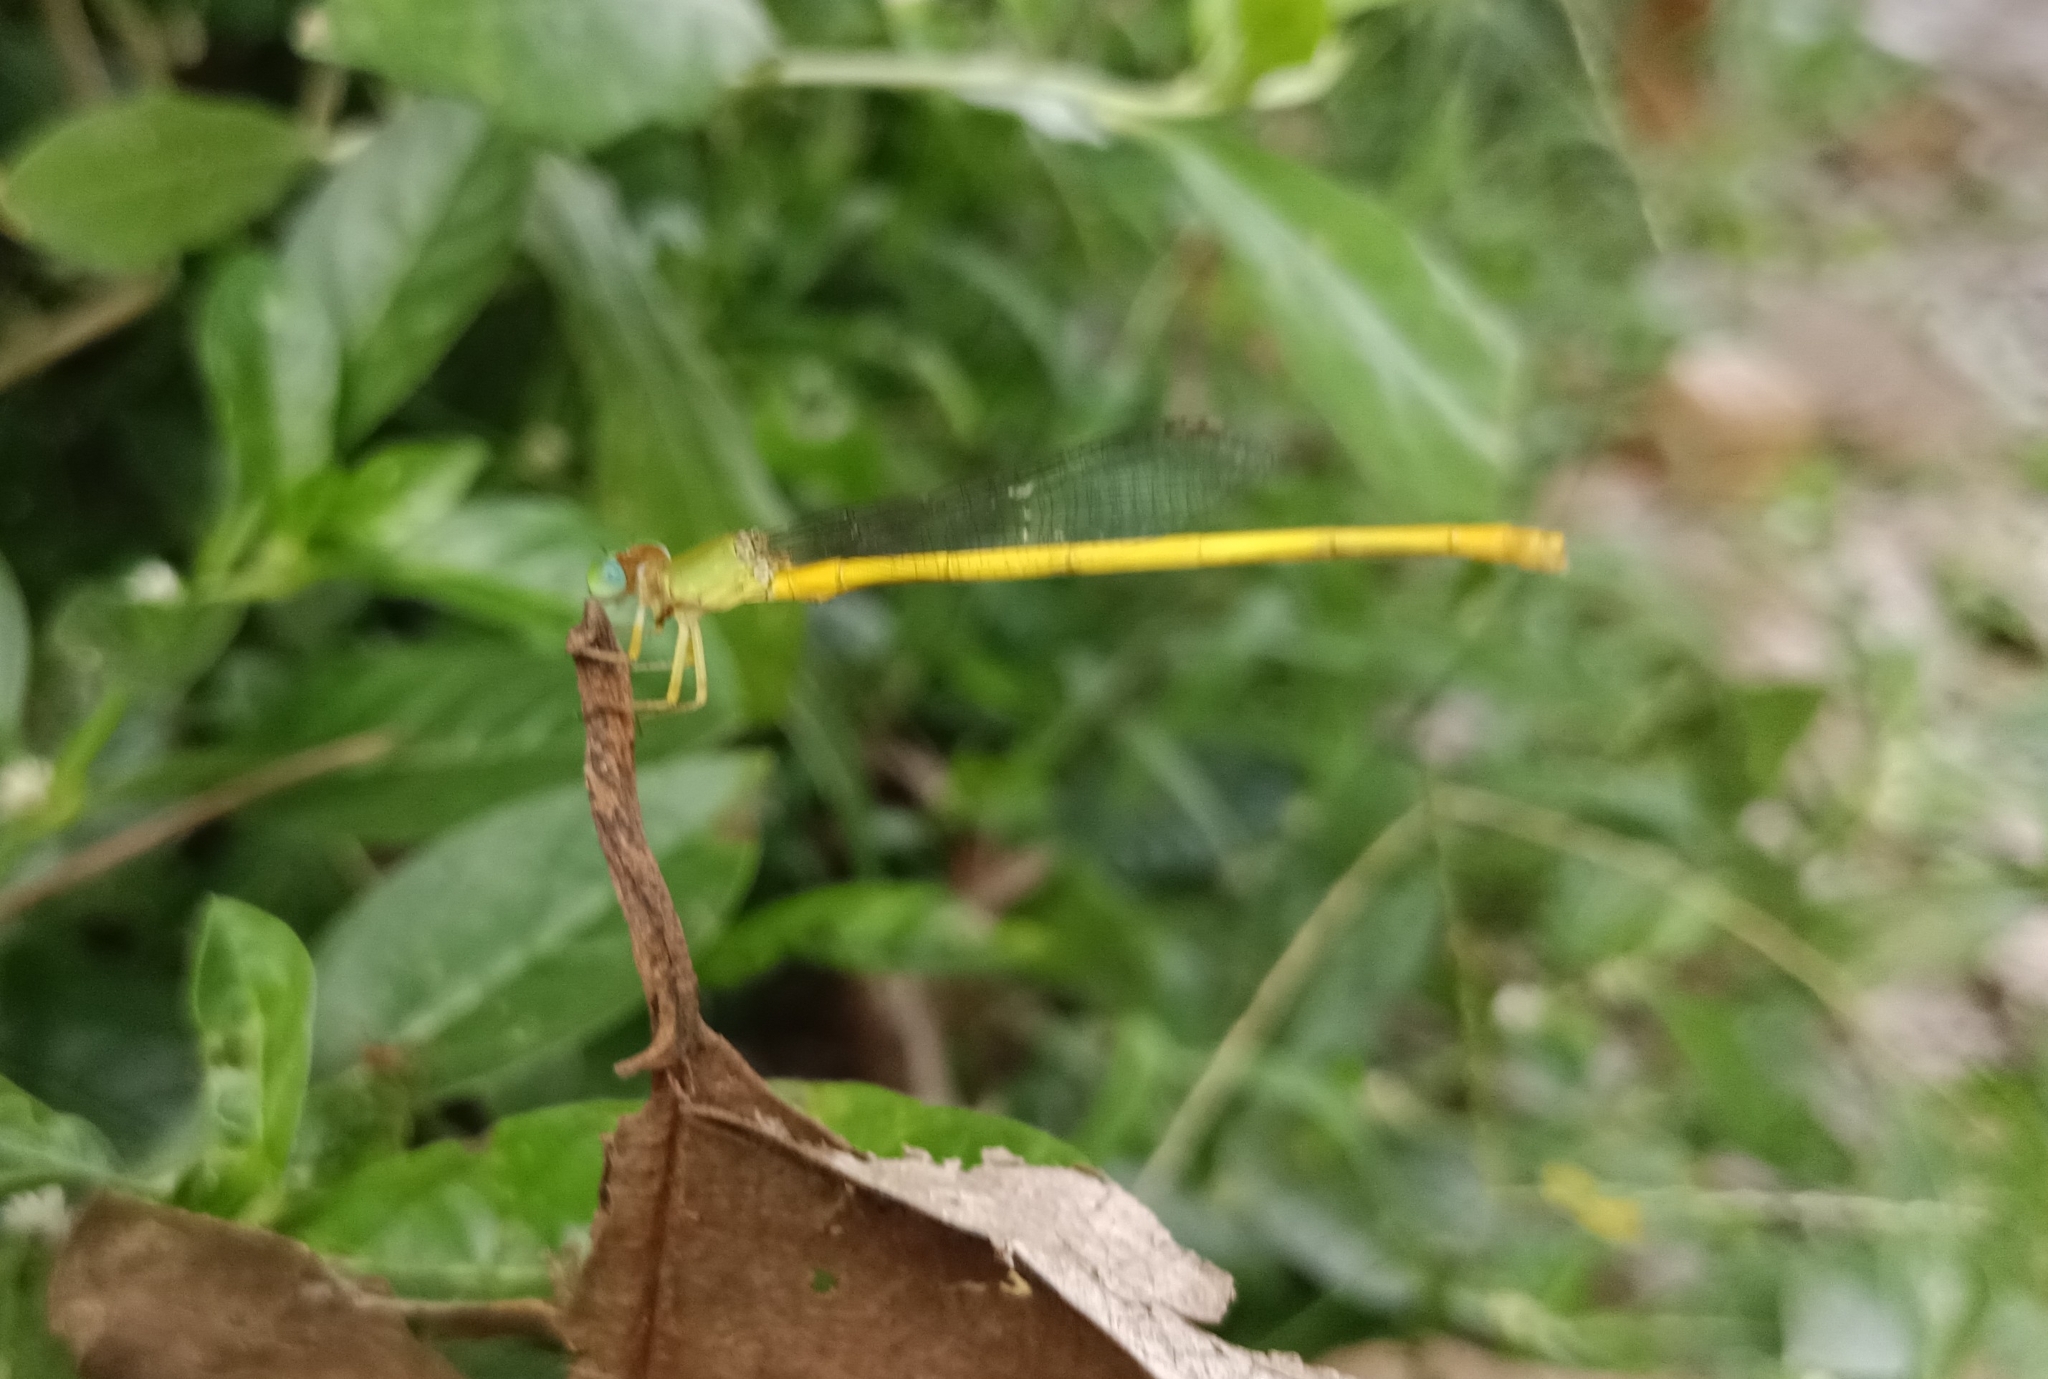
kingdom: Animalia
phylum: Arthropoda
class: Insecta
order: Odonata
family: Coenagrionidae
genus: Ceriagrion
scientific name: Ceriagrion coromandelianum
